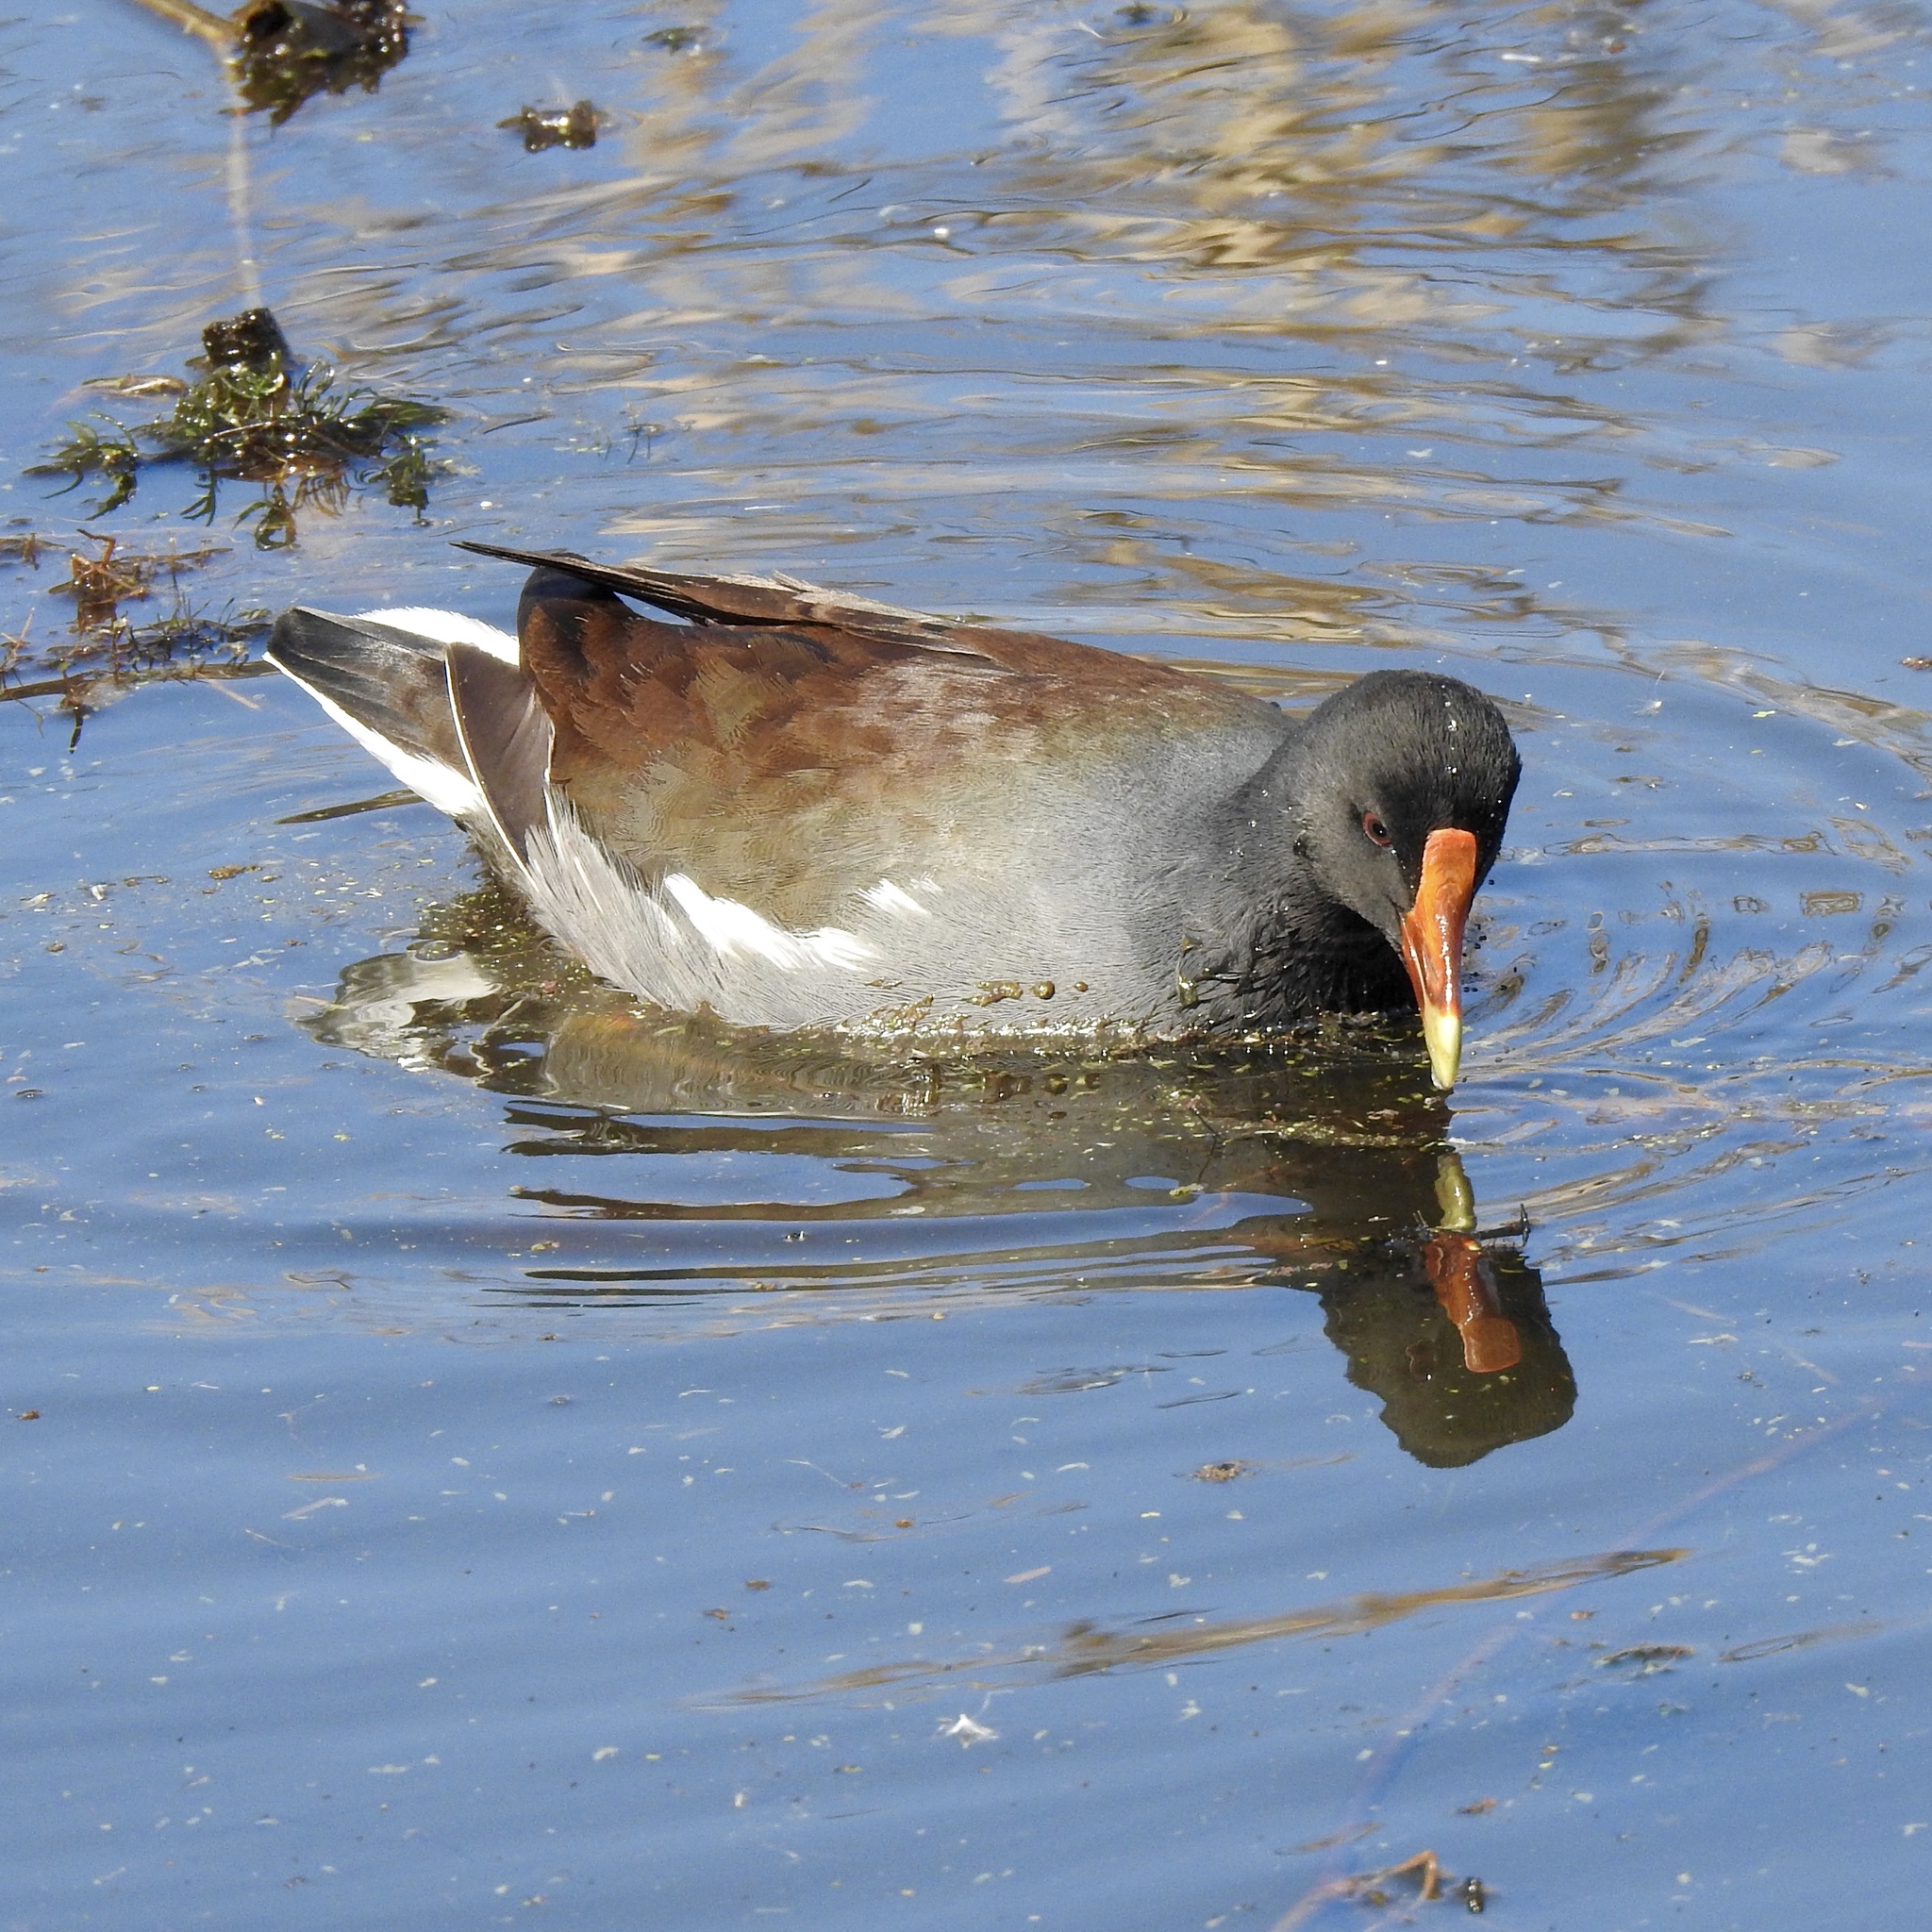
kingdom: Animalia
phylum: Chordata
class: Aves
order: Gruiformes
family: Rallidae
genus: Gallinula
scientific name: Gallinula chloropus
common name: Common moorhen
